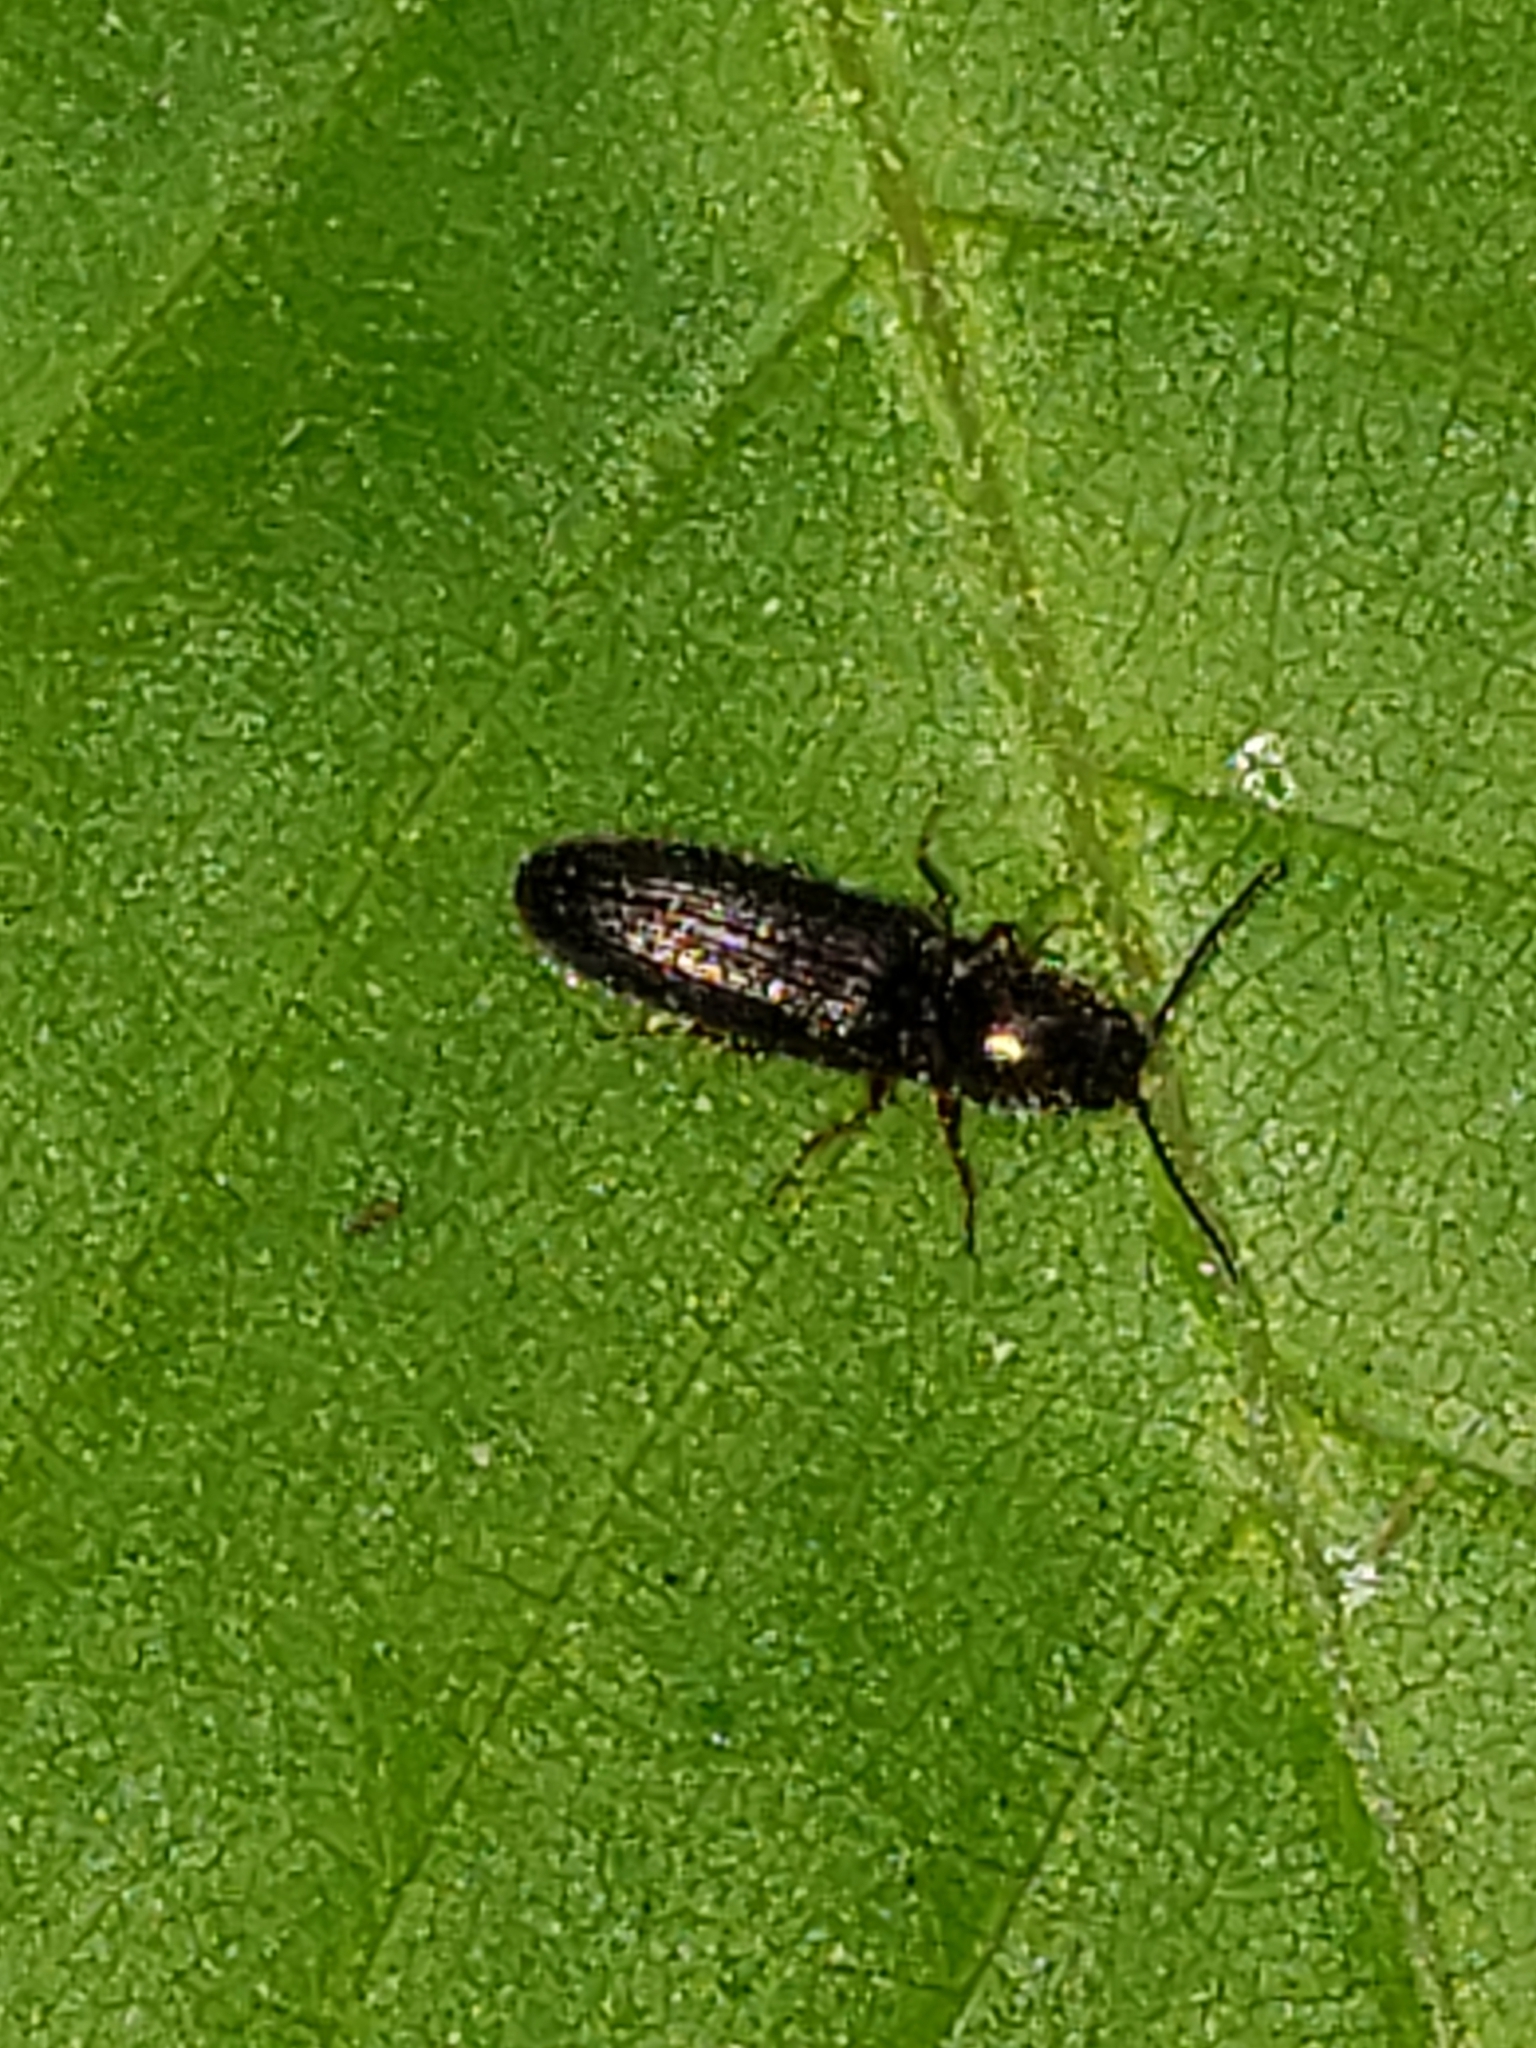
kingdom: Animalia
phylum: Arthropoda
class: Insecta
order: Coleoptera
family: Elateridae
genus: Limonius
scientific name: Limonius quercinus
